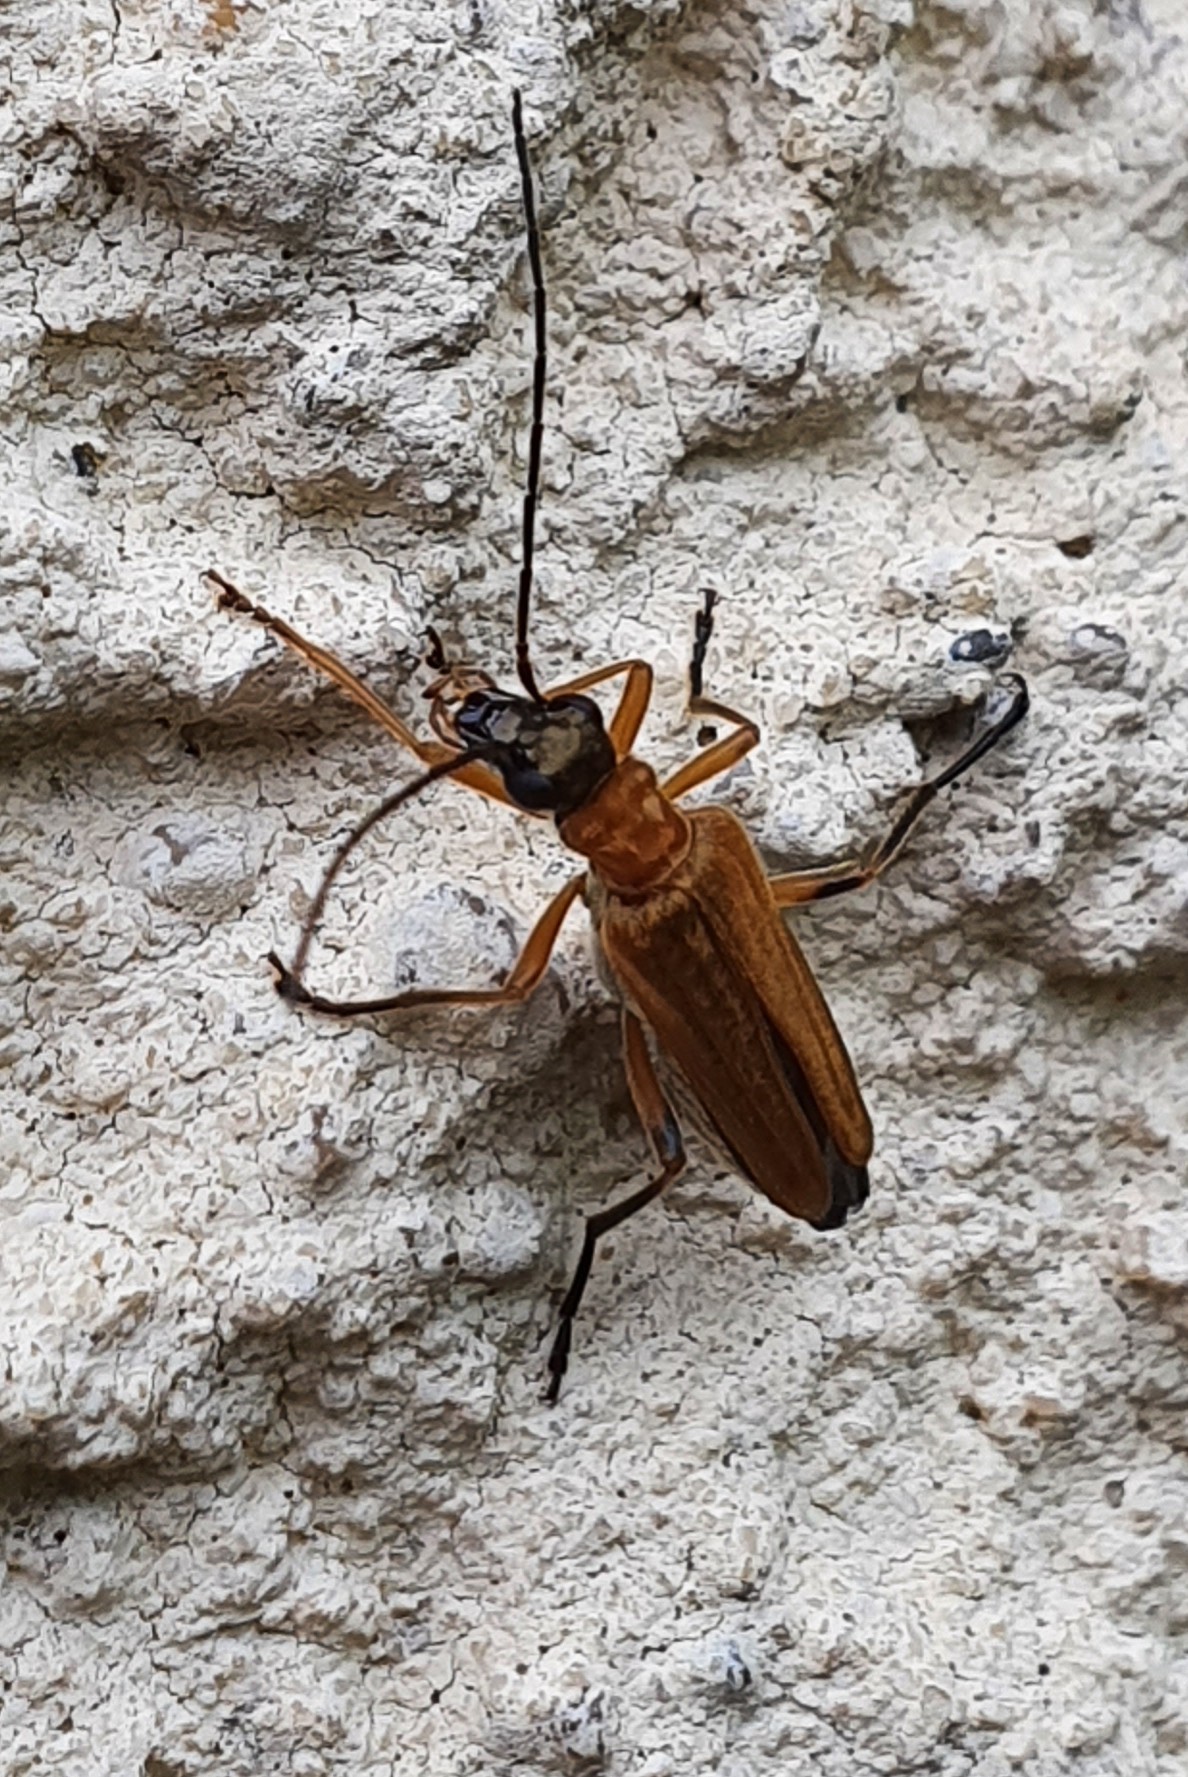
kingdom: Animalia
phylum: Arthropoda
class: Insecta
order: Coleoptera
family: Oedemeridae
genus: Oedemera
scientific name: Oedemera podagrariae
